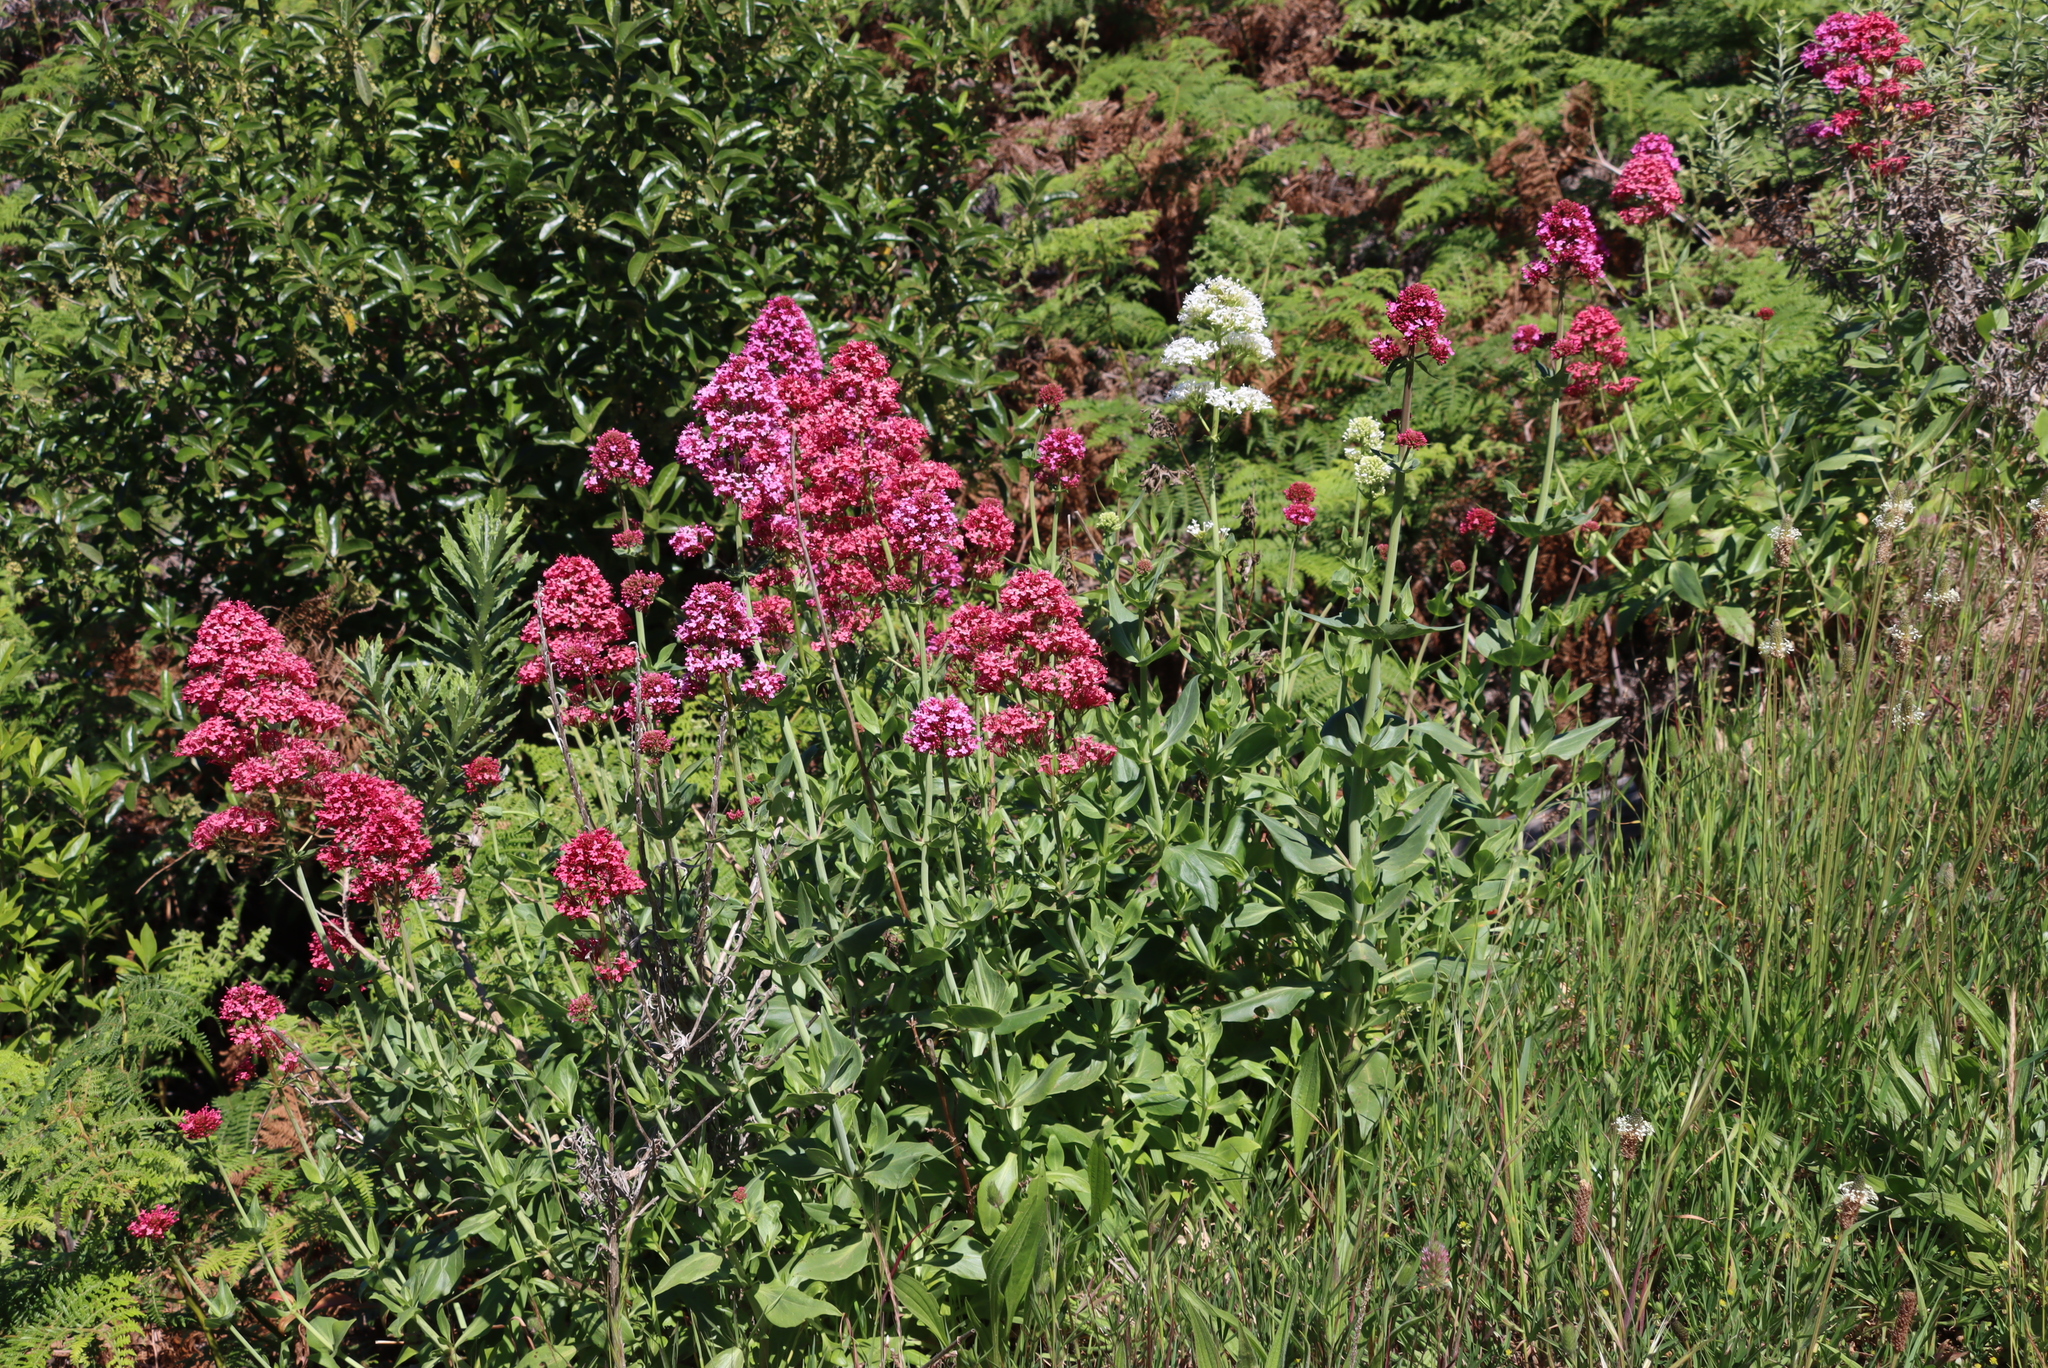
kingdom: Plantae
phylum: Tracheophyta
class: Magnoliopsida
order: Dipsacales
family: Caprifoliaceae
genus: Centranthus
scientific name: Centranthus ruber
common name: Red valerian
